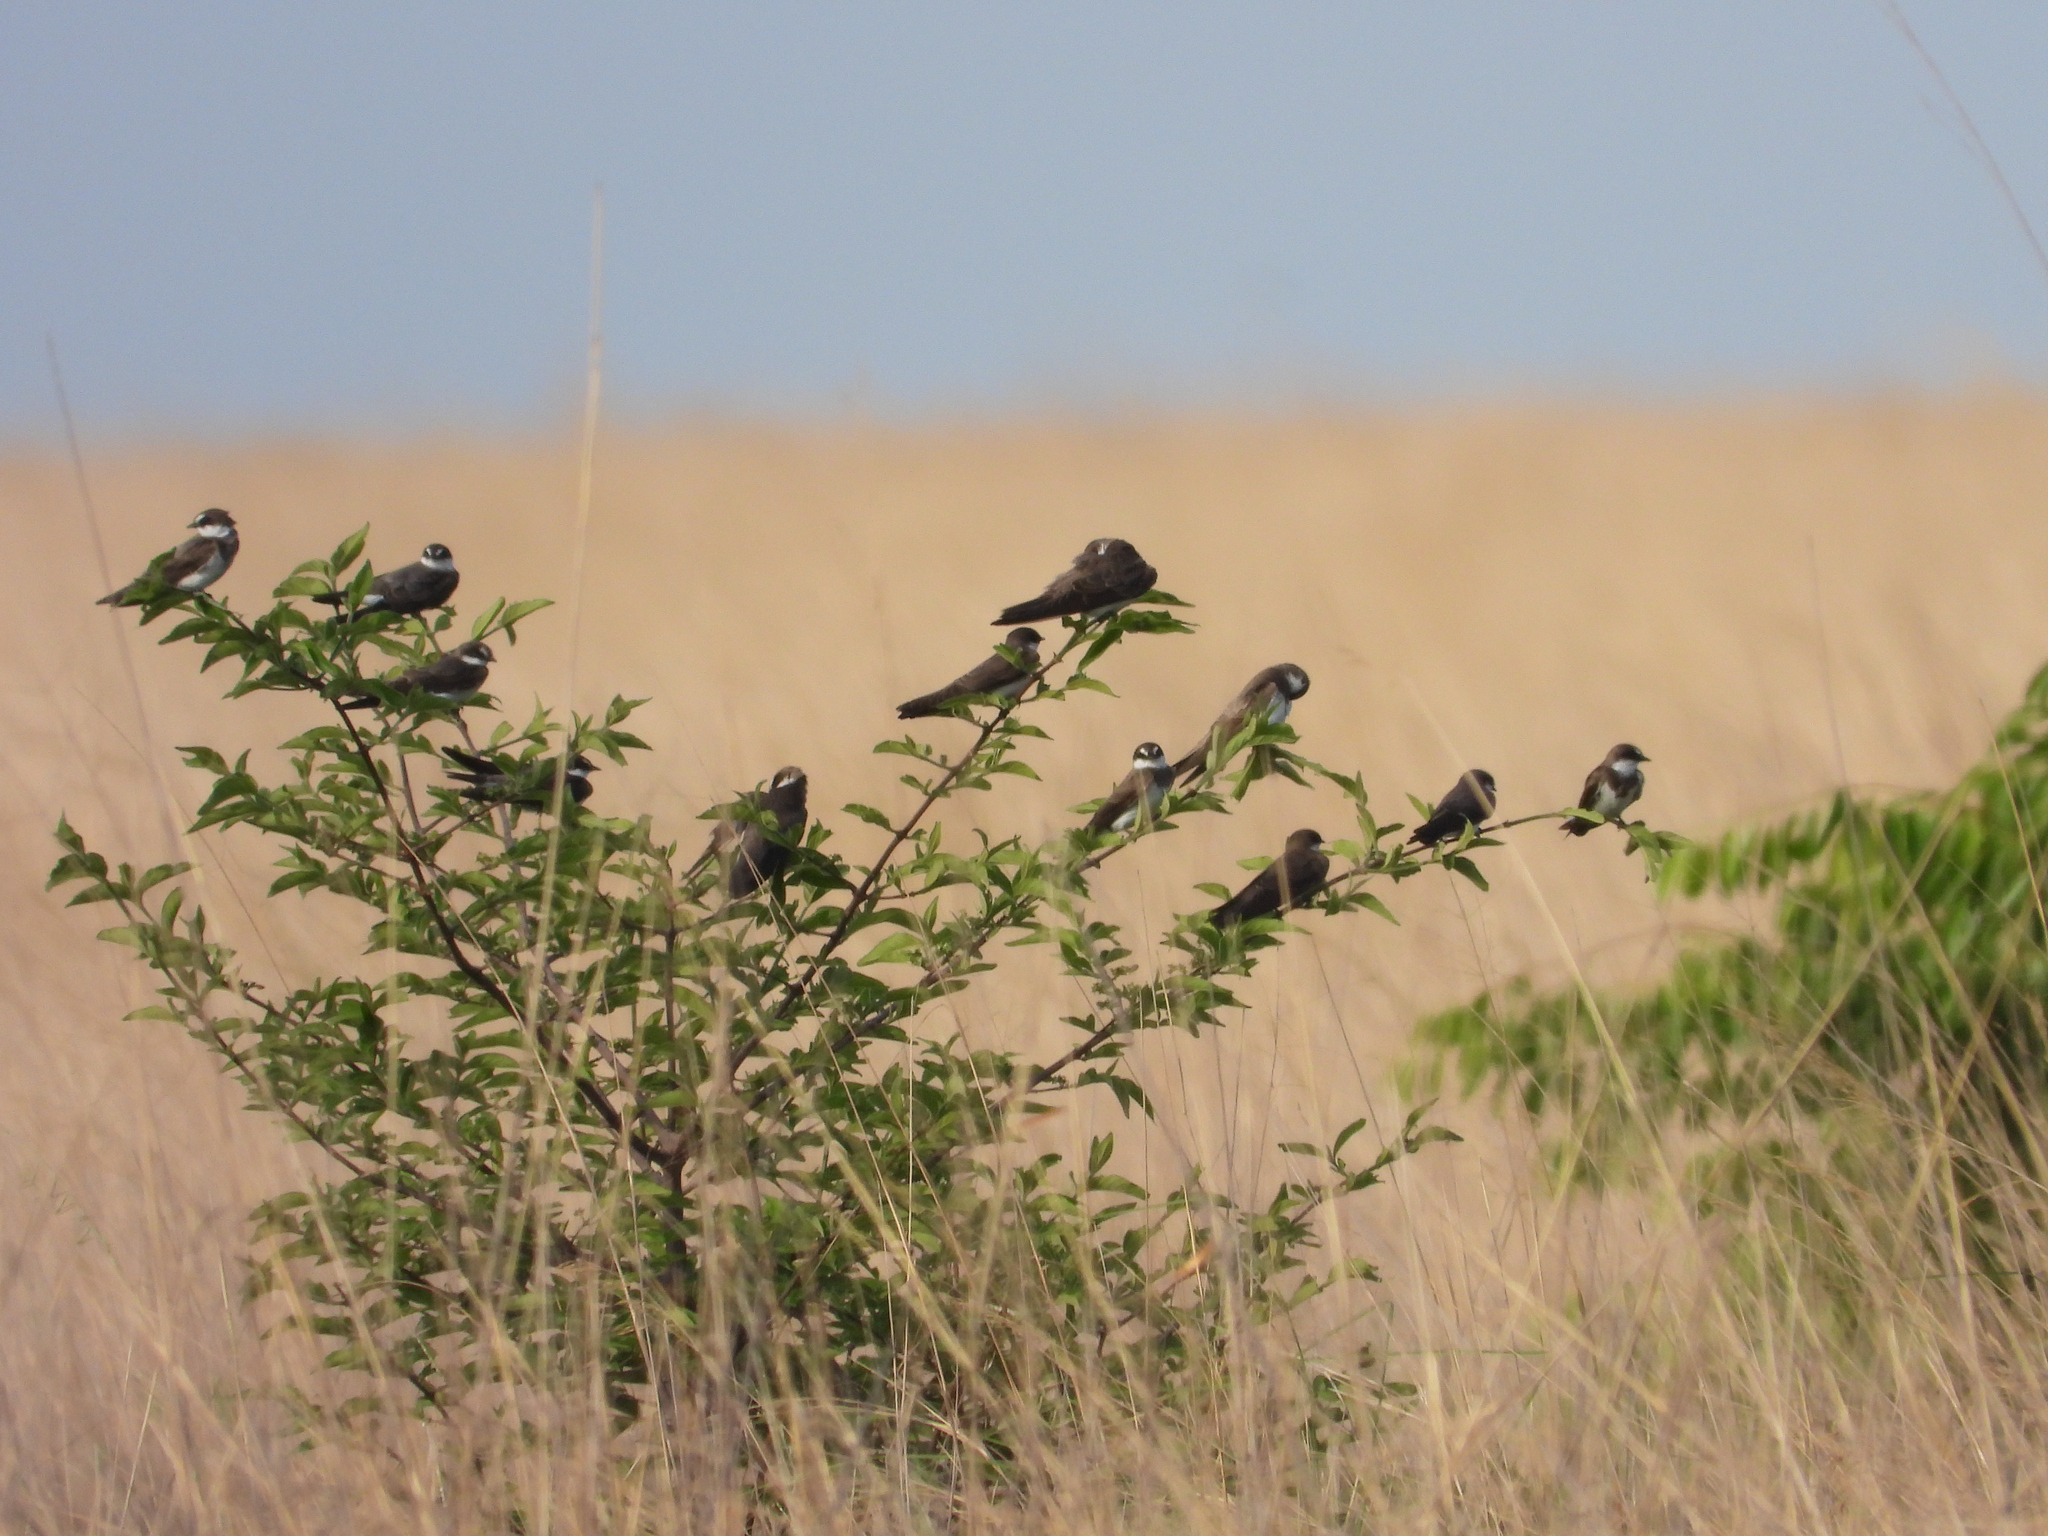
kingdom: Animalia
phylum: Chordata
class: Aves
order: Passeriformes
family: Hirundinidae
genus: Riparia
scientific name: Riparia cincta
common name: Banded martin
